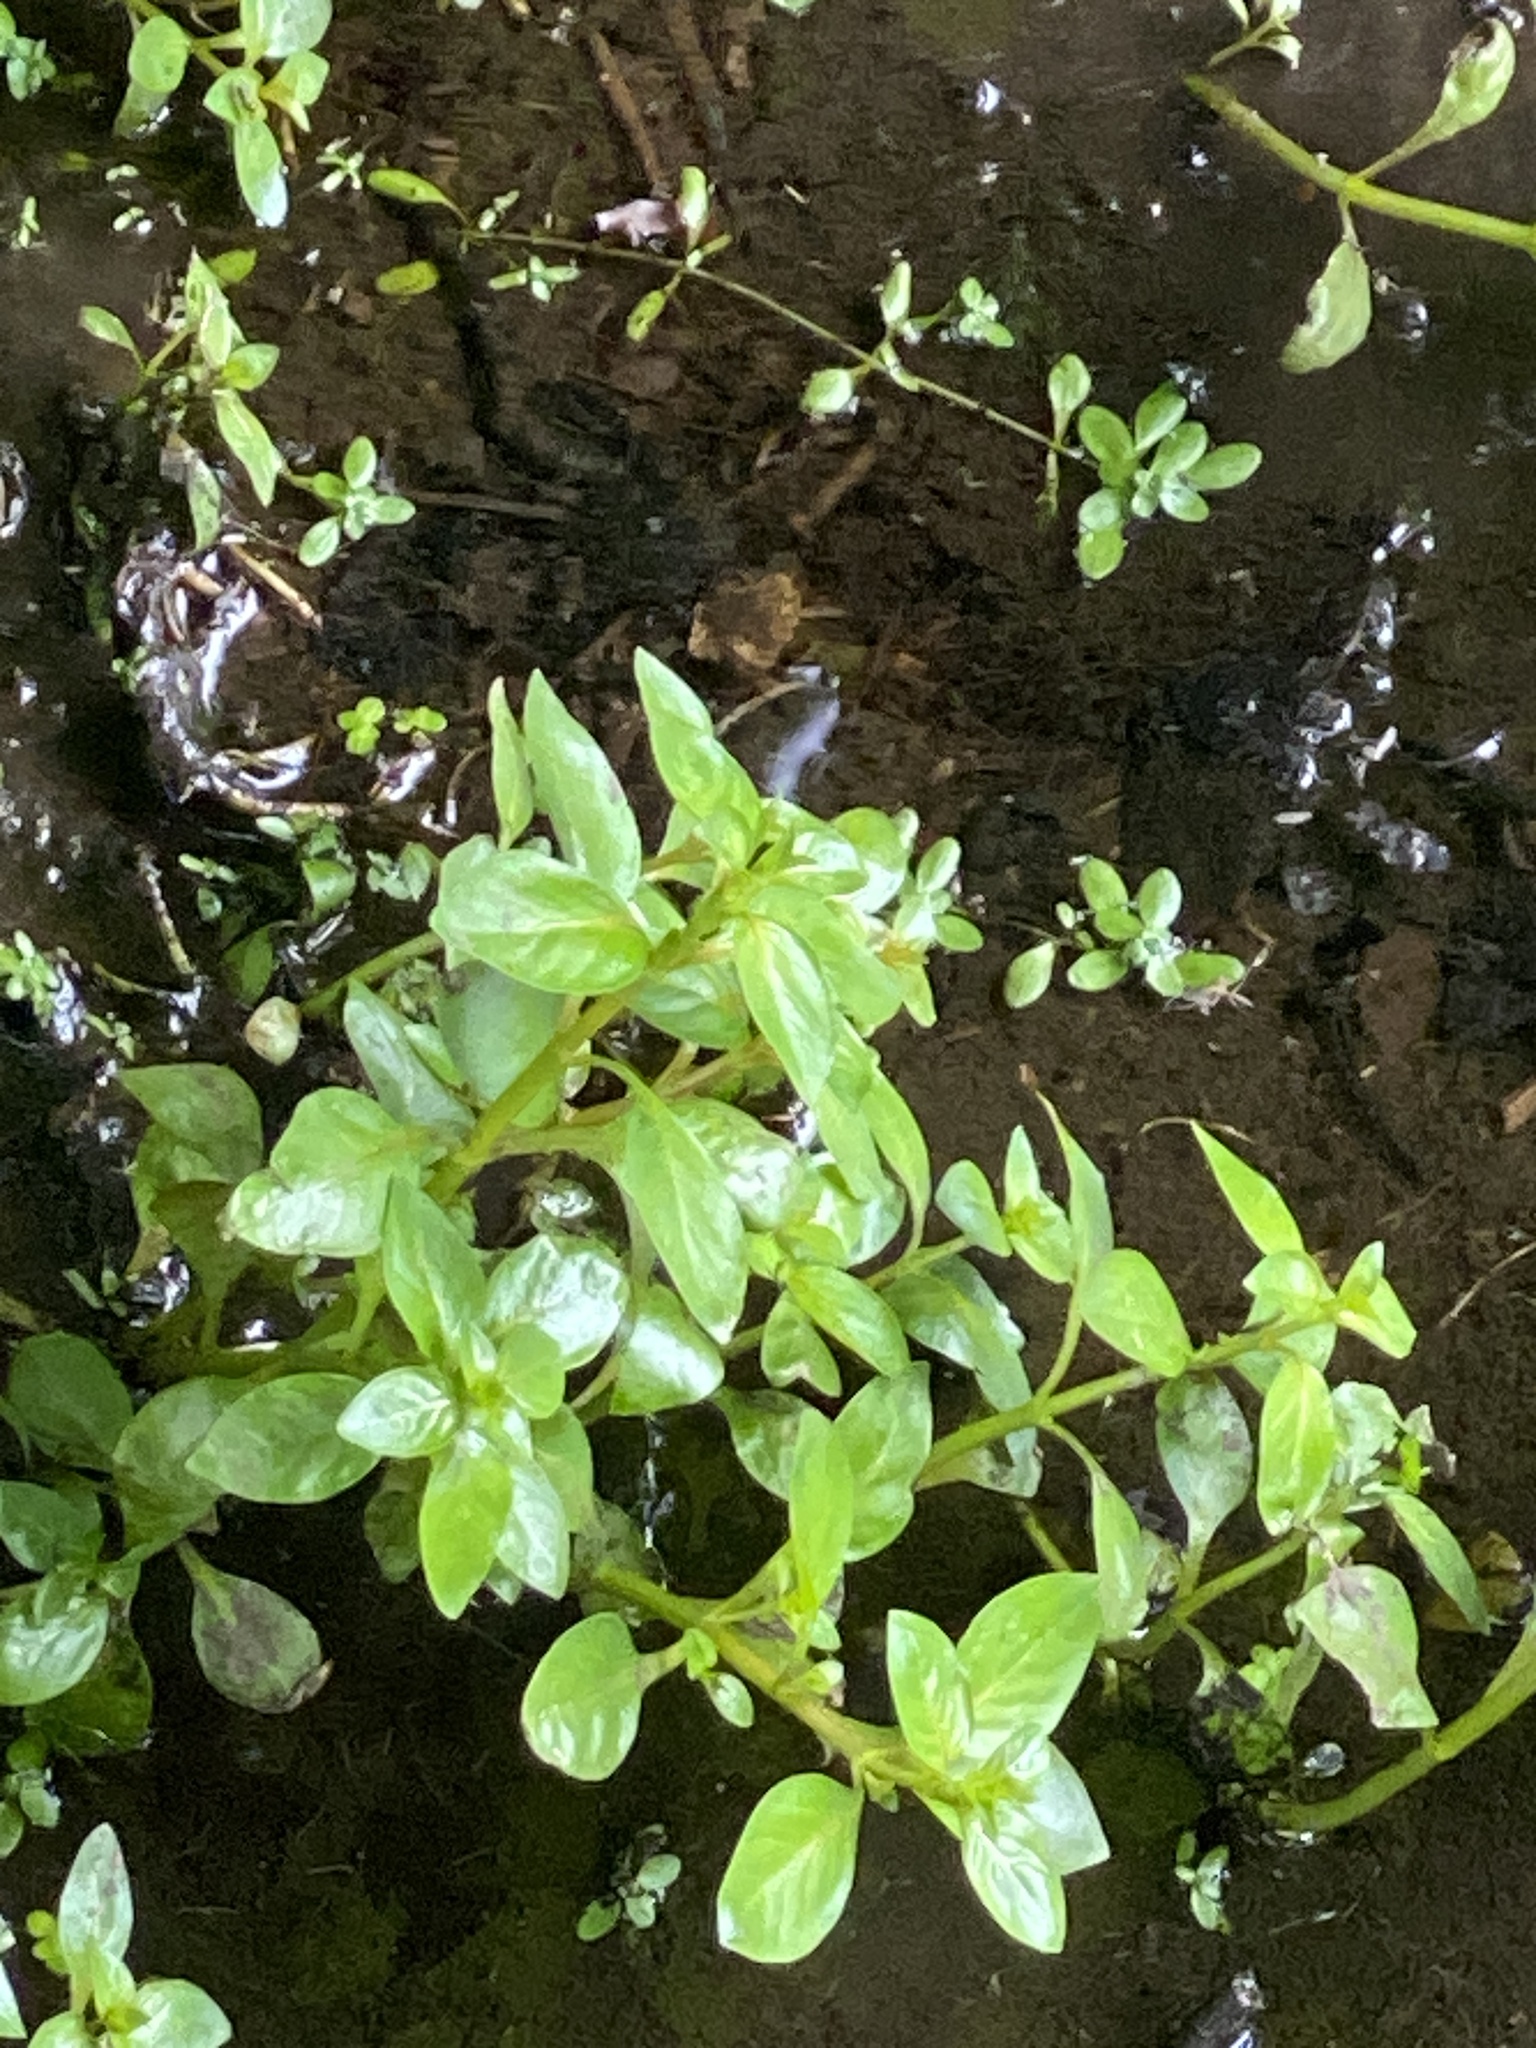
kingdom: Plantae
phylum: Tracheophyta
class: Magnoliopsida
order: Myrtales
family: Onagraceae
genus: Ludwigia
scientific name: Ludwigia palustris
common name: Hampshire-purslane
